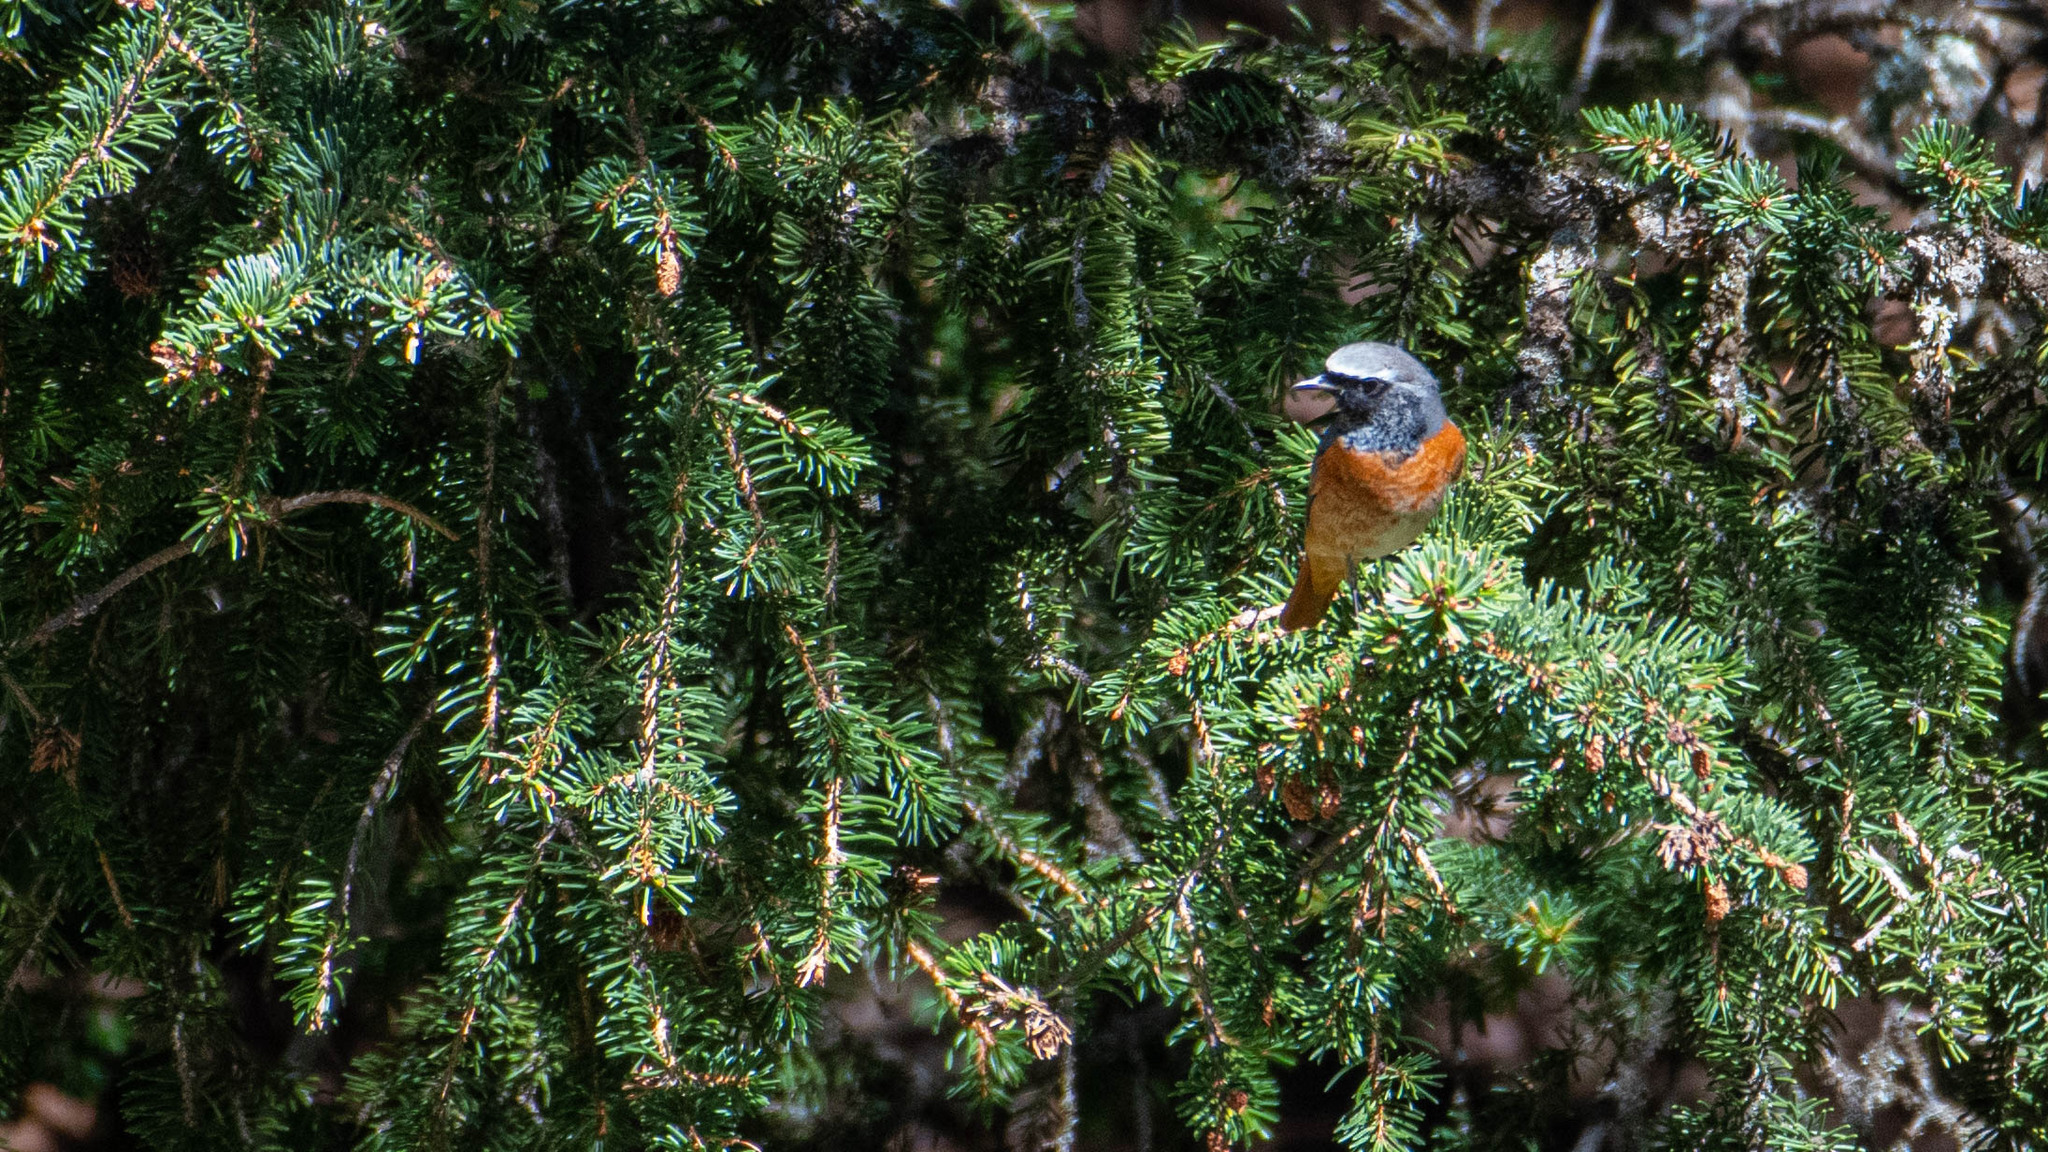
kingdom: Animalia
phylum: Chordata
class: Aves
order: Passeriformes
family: Muscicapidae
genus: Phoenicurus
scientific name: Phoenicurus phoenicurus
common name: Common redstart
